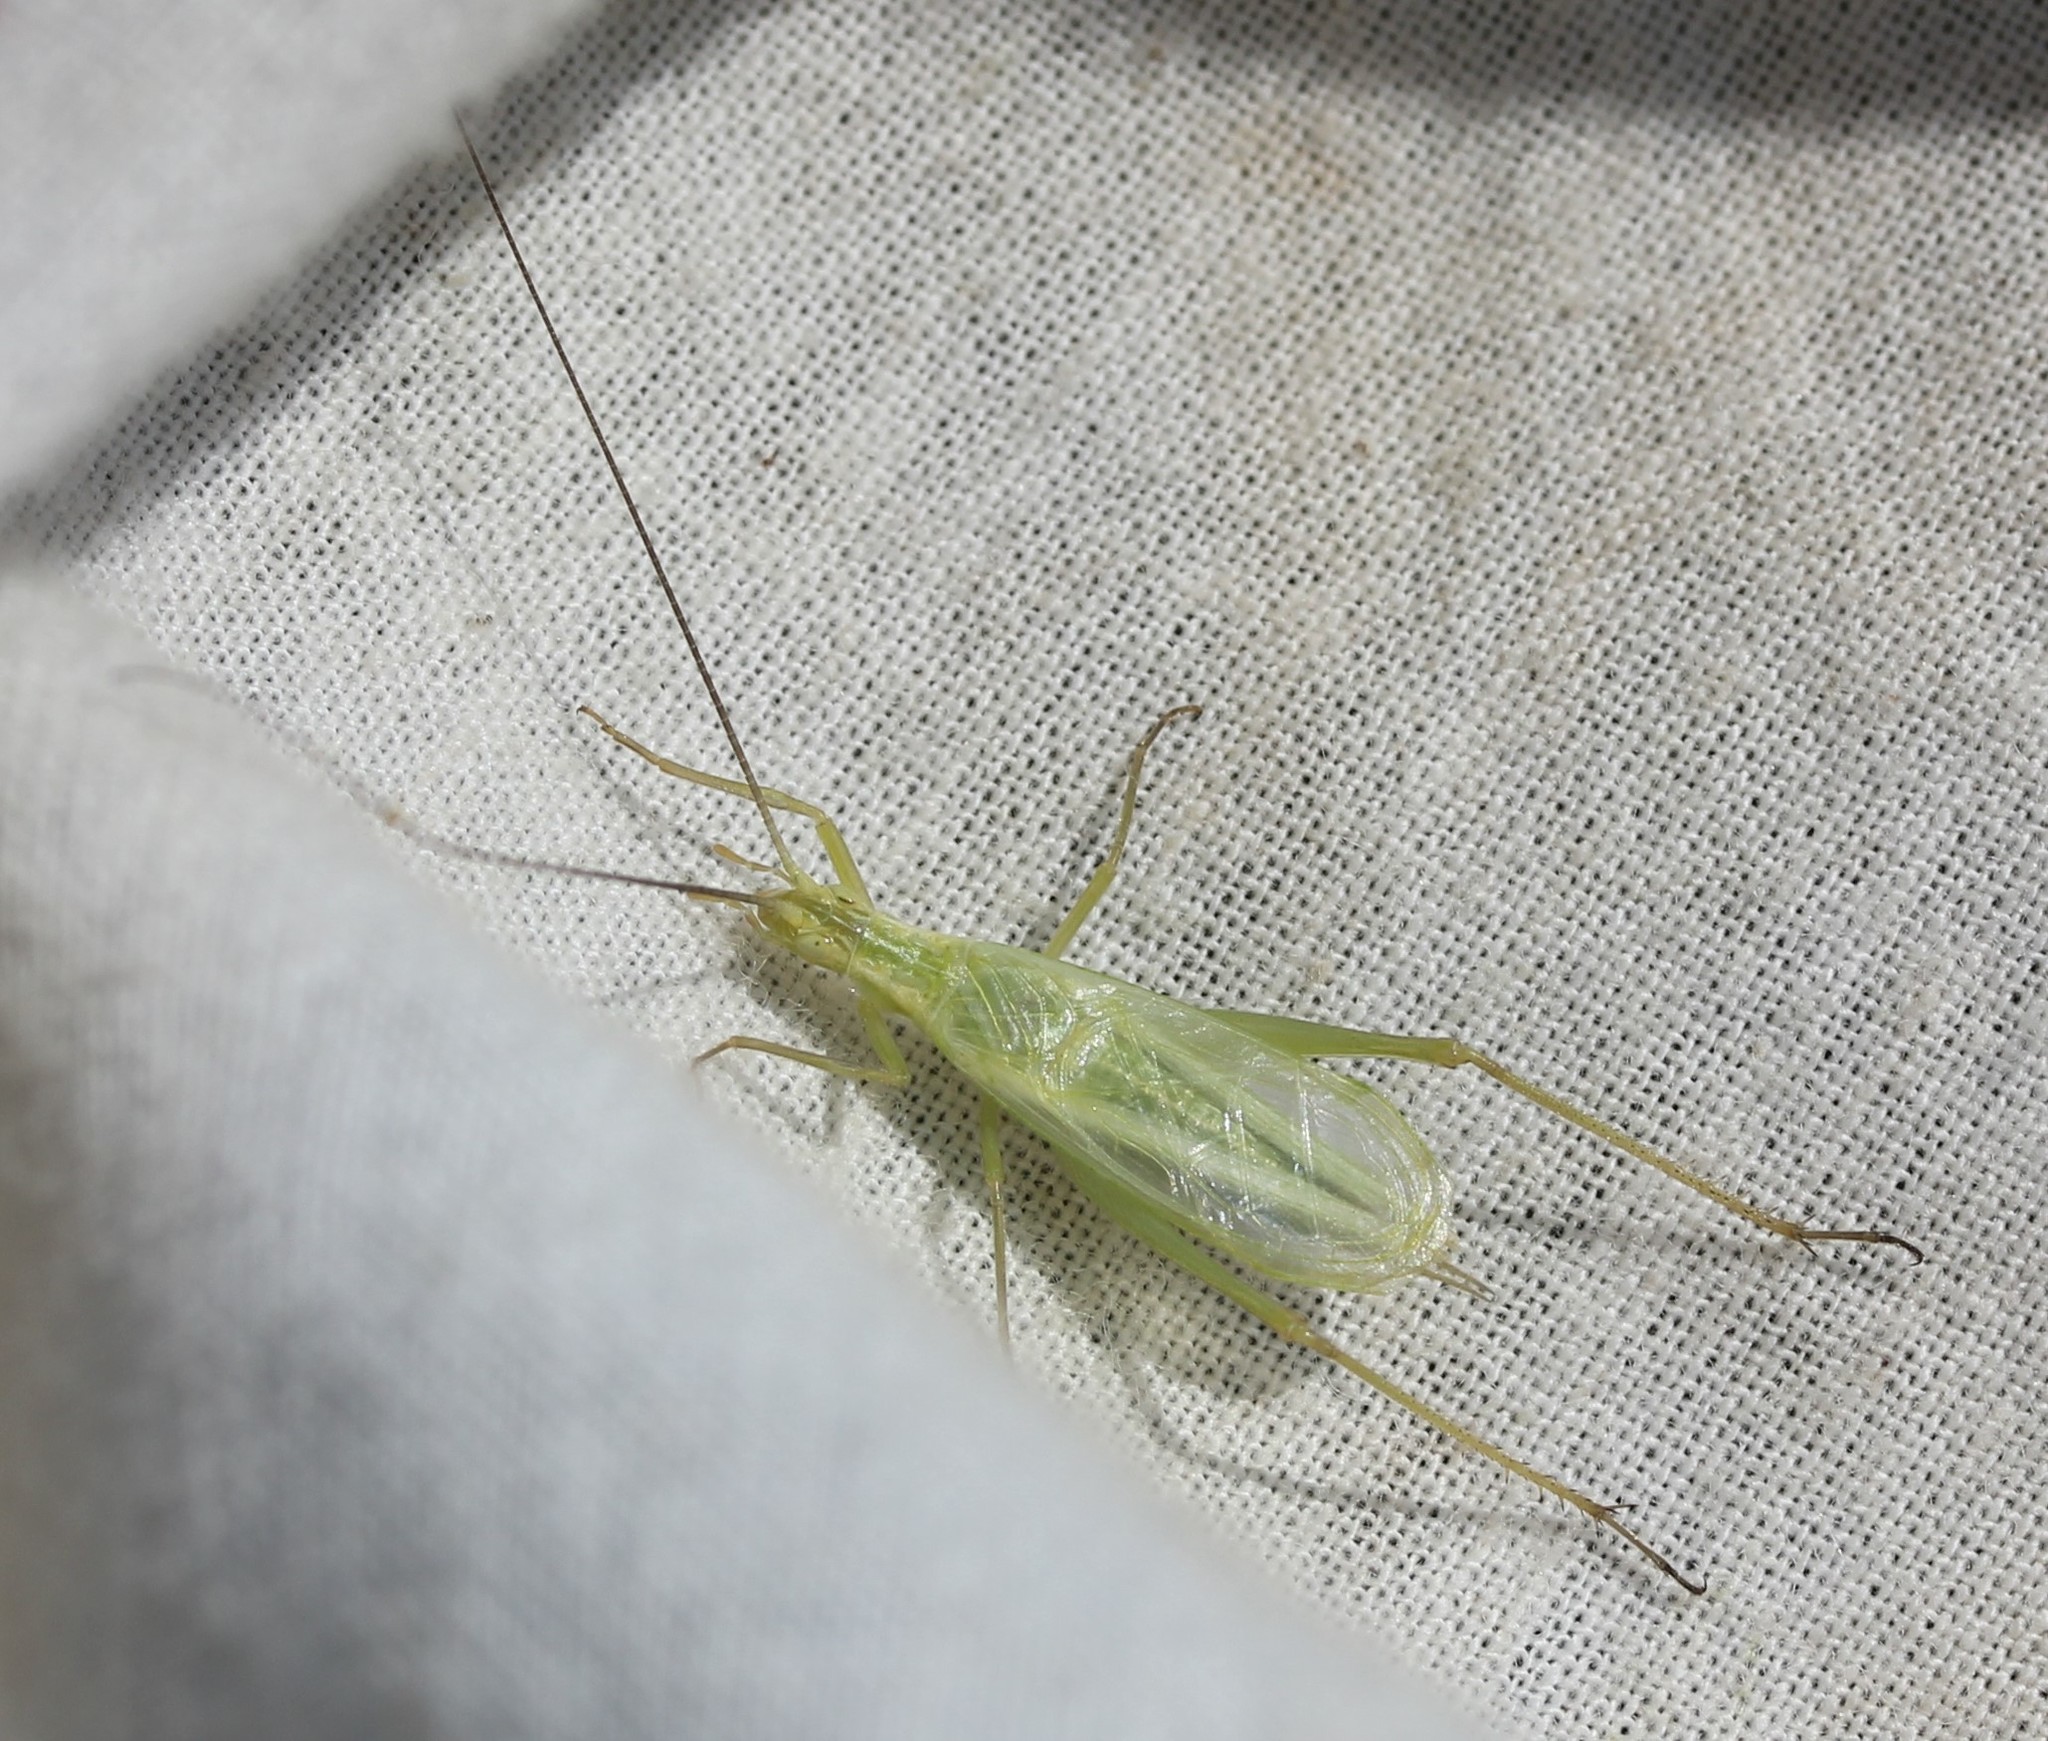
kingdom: Animalia
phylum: Arthropoda
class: Insecta
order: Orthoptera
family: Gryllidae
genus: Oecanthus
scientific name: Oecanthus argentinus
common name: Prairie tree cricket
